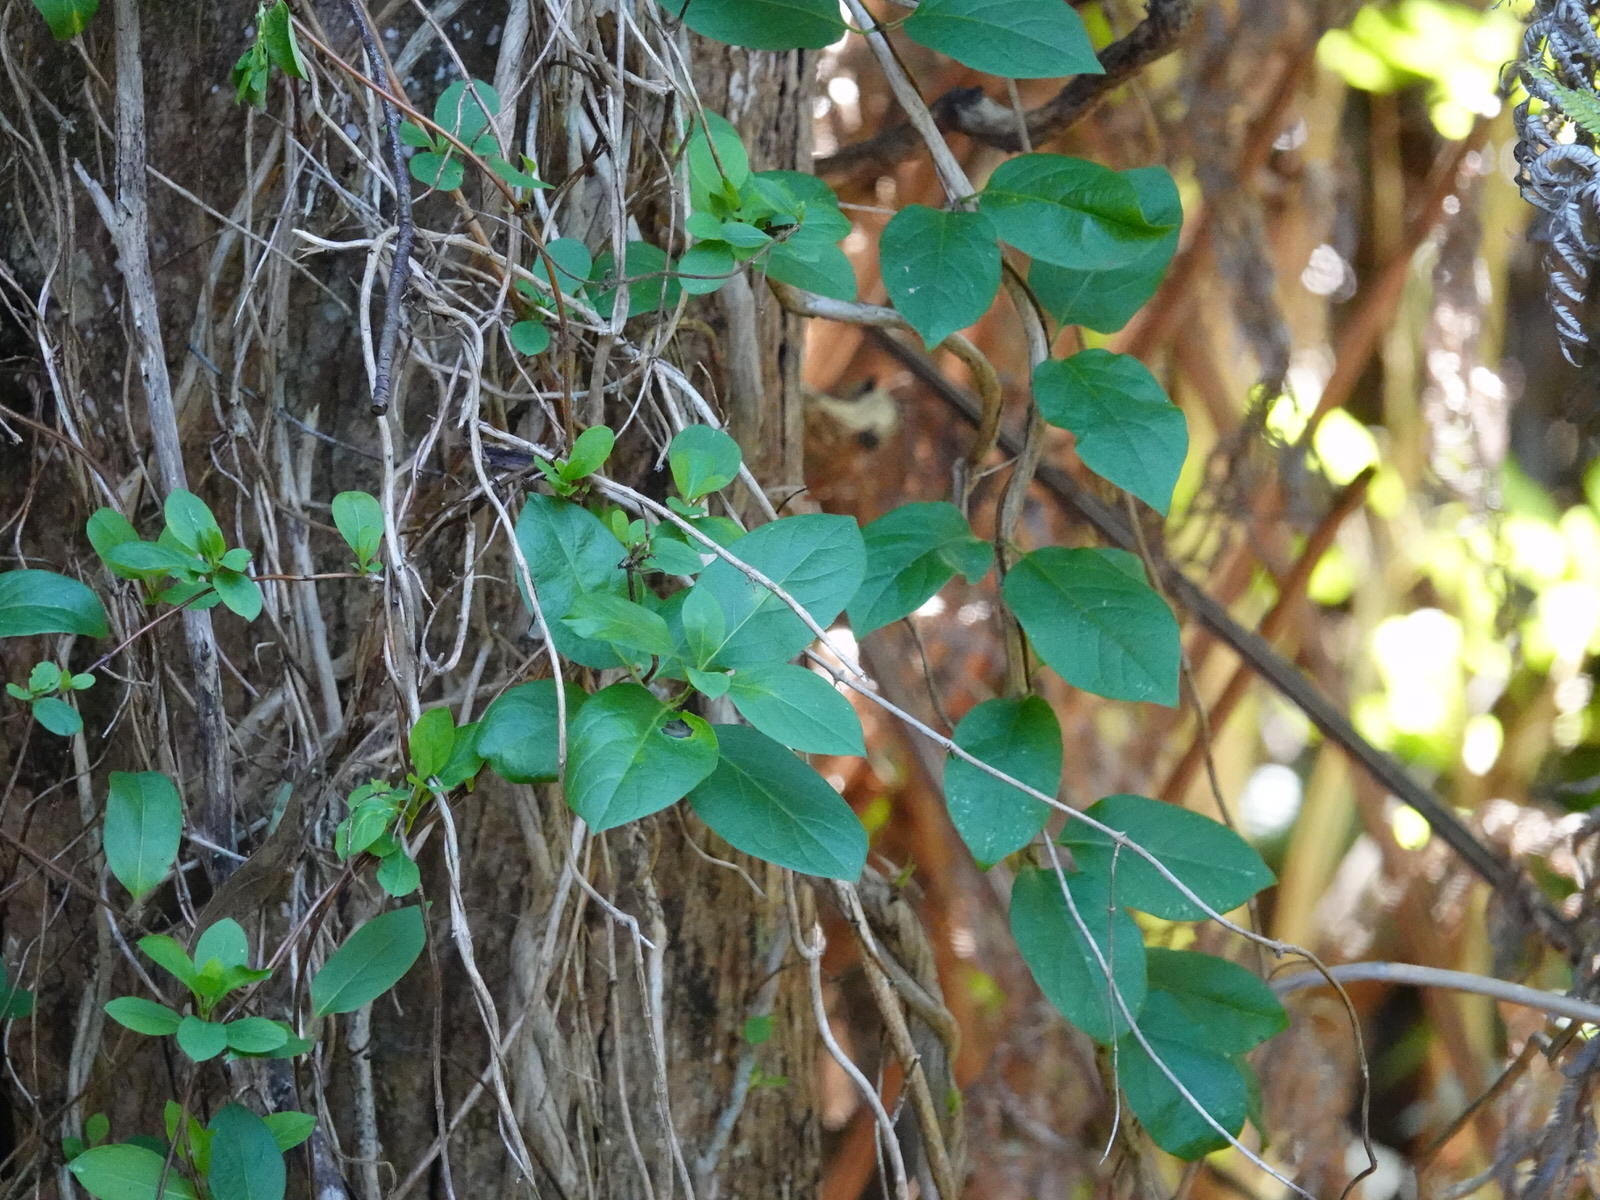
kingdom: Plantae
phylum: Tracheophyta
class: Magnoliopsida
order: Dipsacales
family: Caprifoliaceae
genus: Lonicera
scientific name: Lonicera japonica
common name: Japanese honeysuckle
